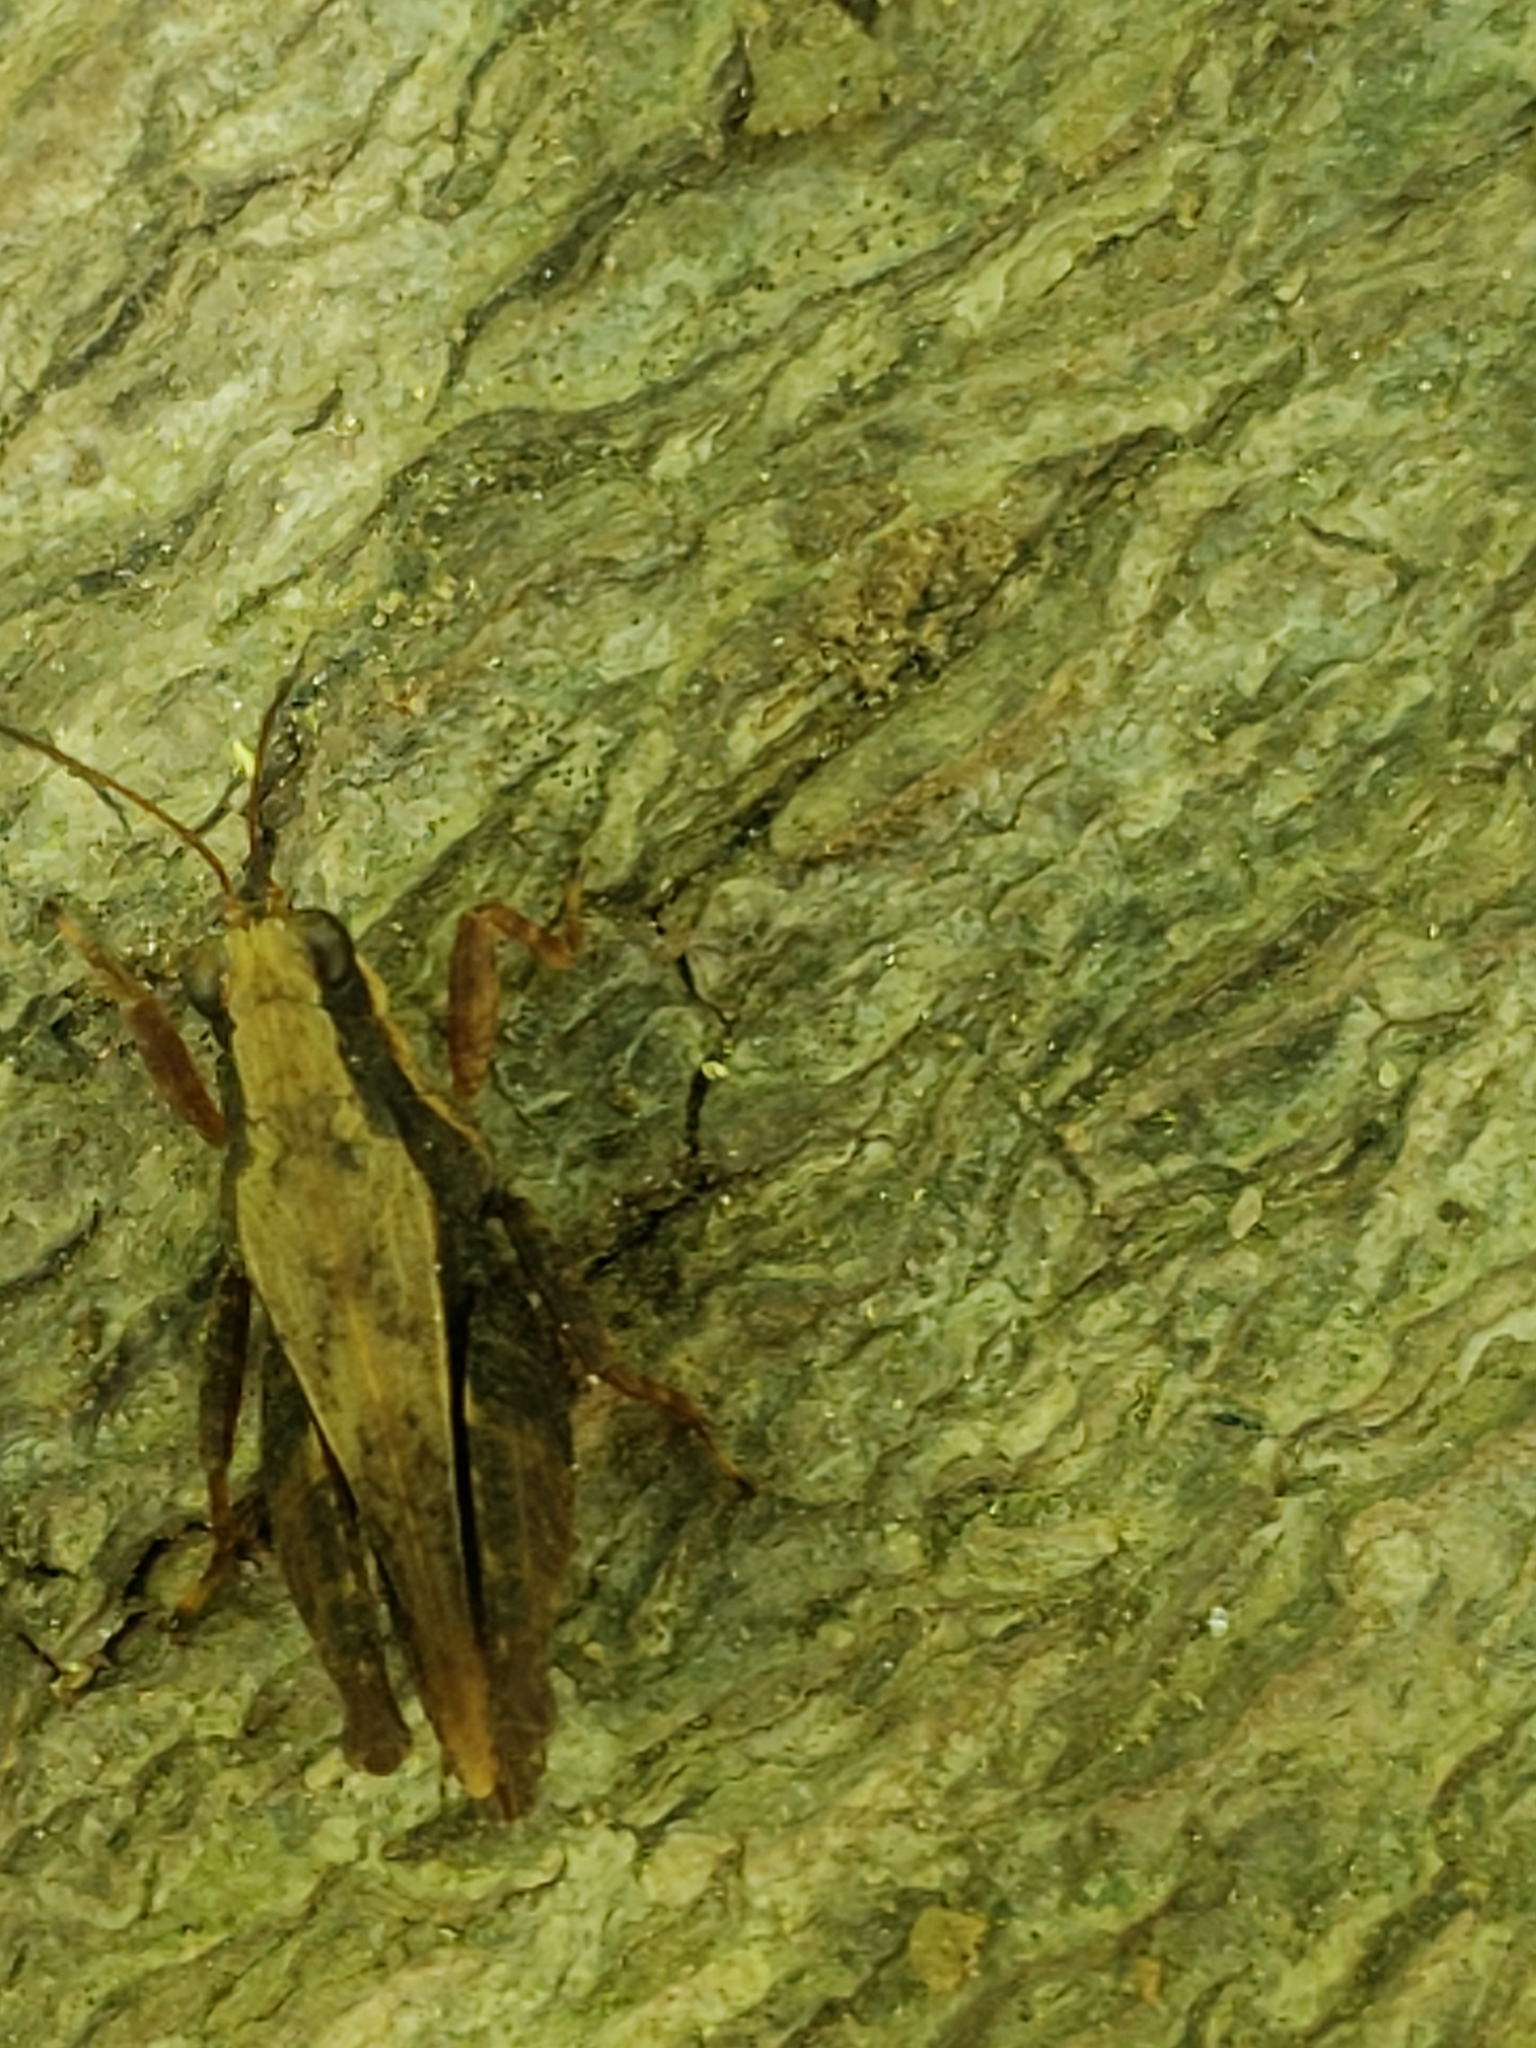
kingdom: Animalia
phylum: Arthropoda
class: Insecta
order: Orthoptera
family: Tetrigidae
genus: Tettigidea
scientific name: Tettigidea laterale
